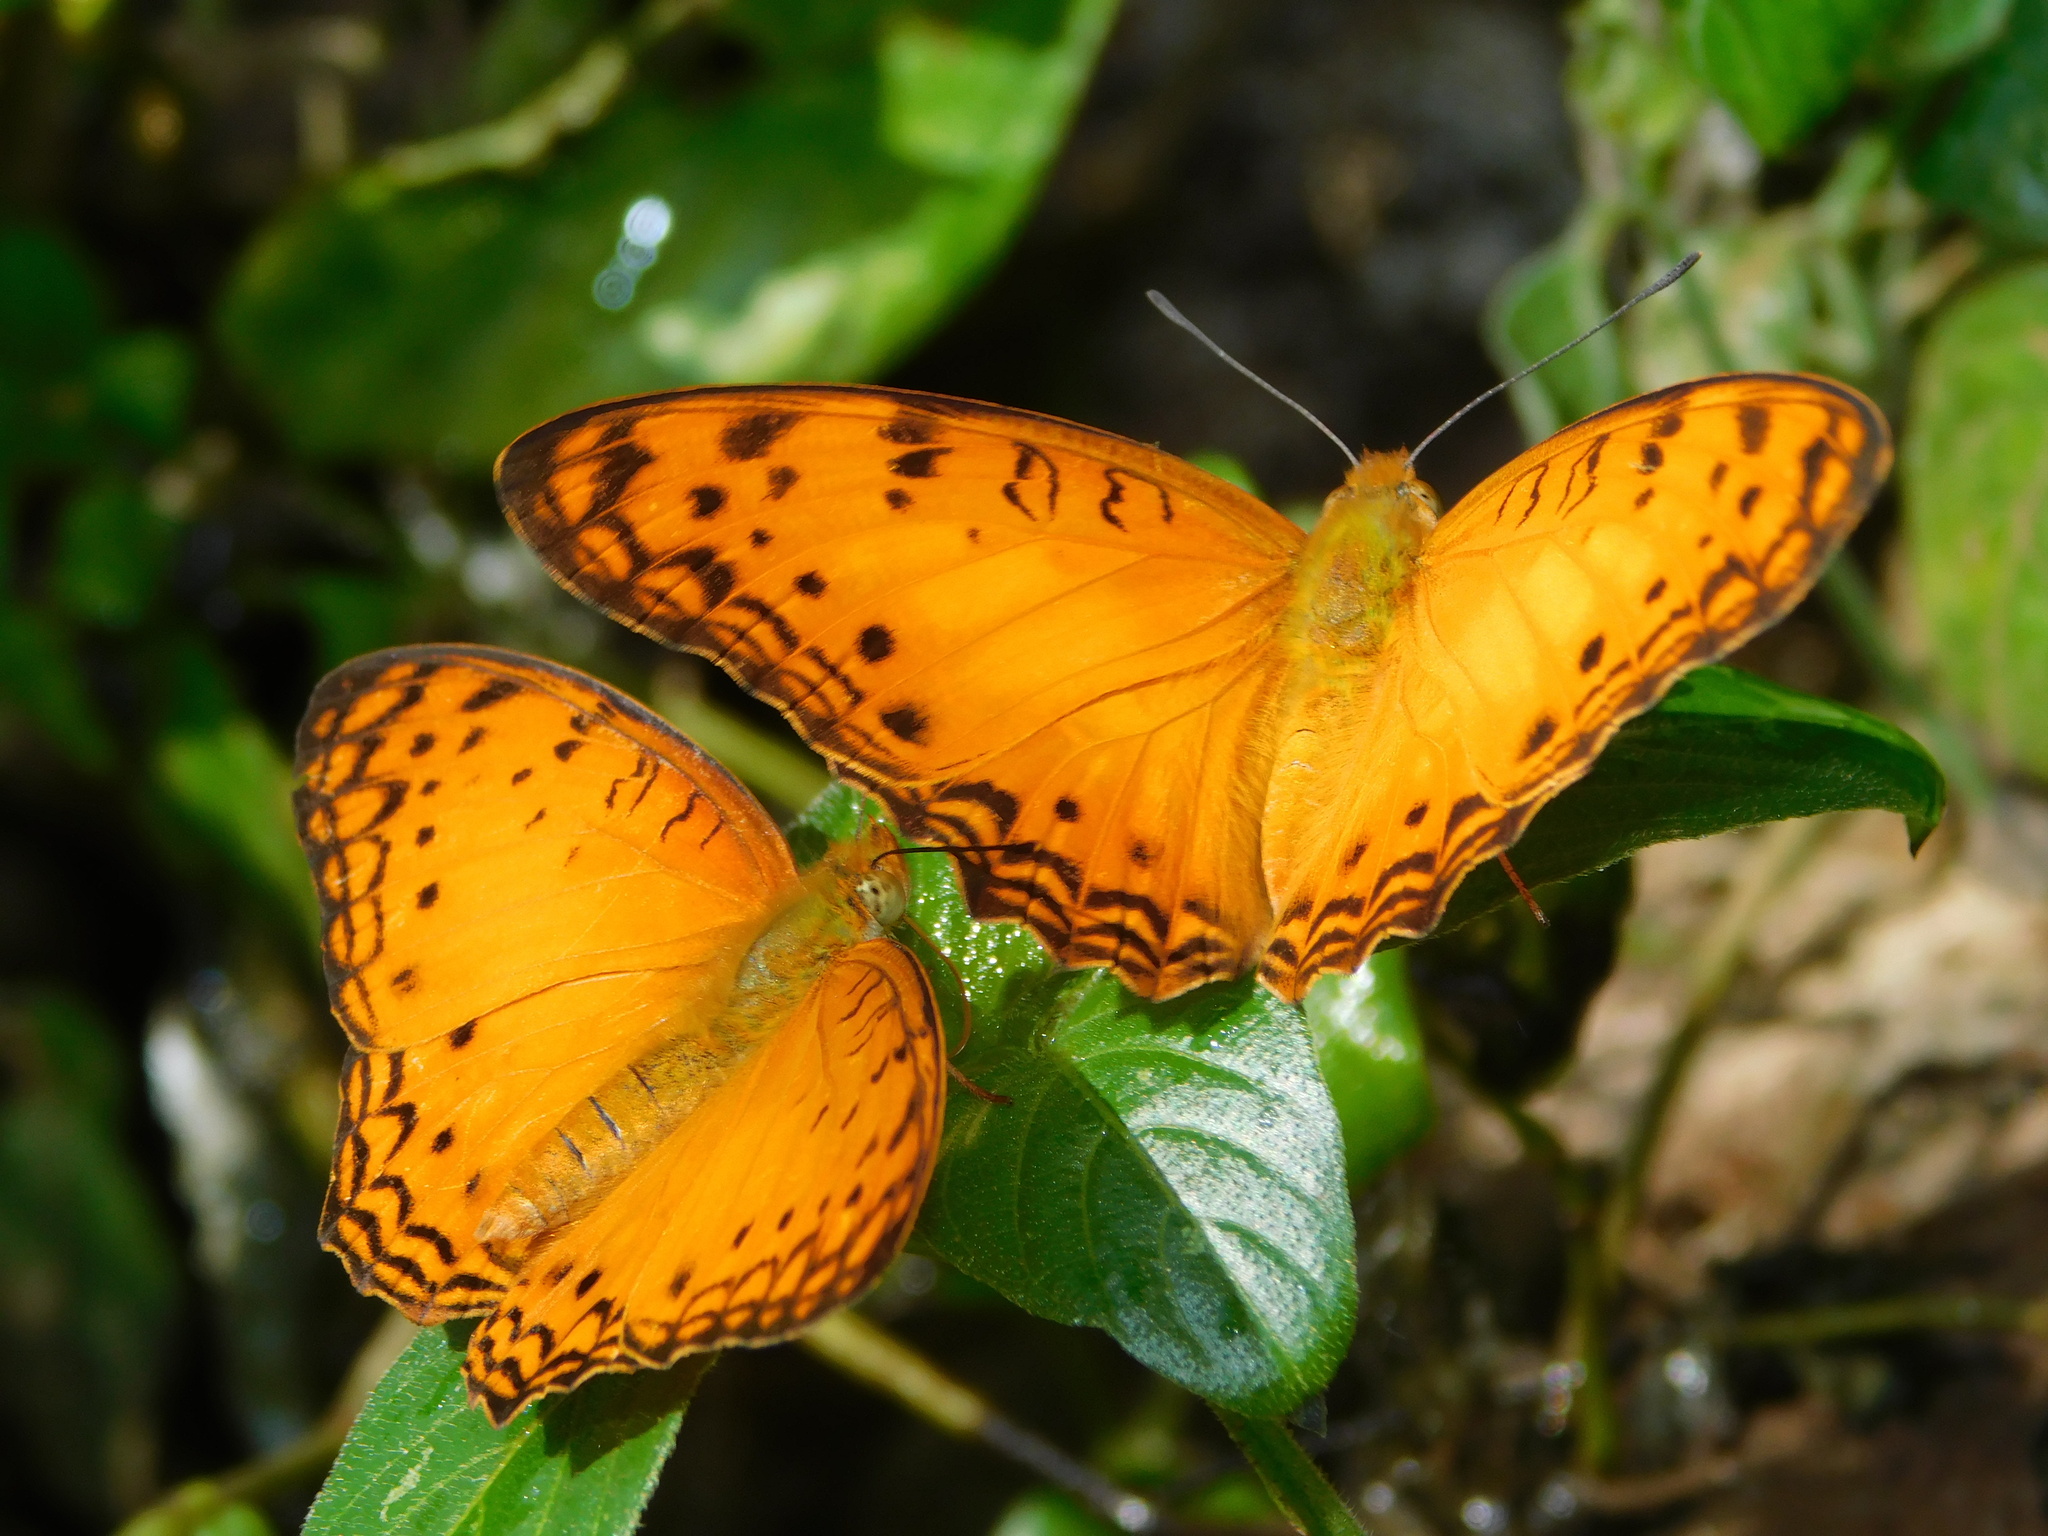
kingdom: Animalia
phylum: Arthropoda
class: Insecta
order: Lepidoptera
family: Nymphalidae
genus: Phalanta
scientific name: Phalanta columbina
